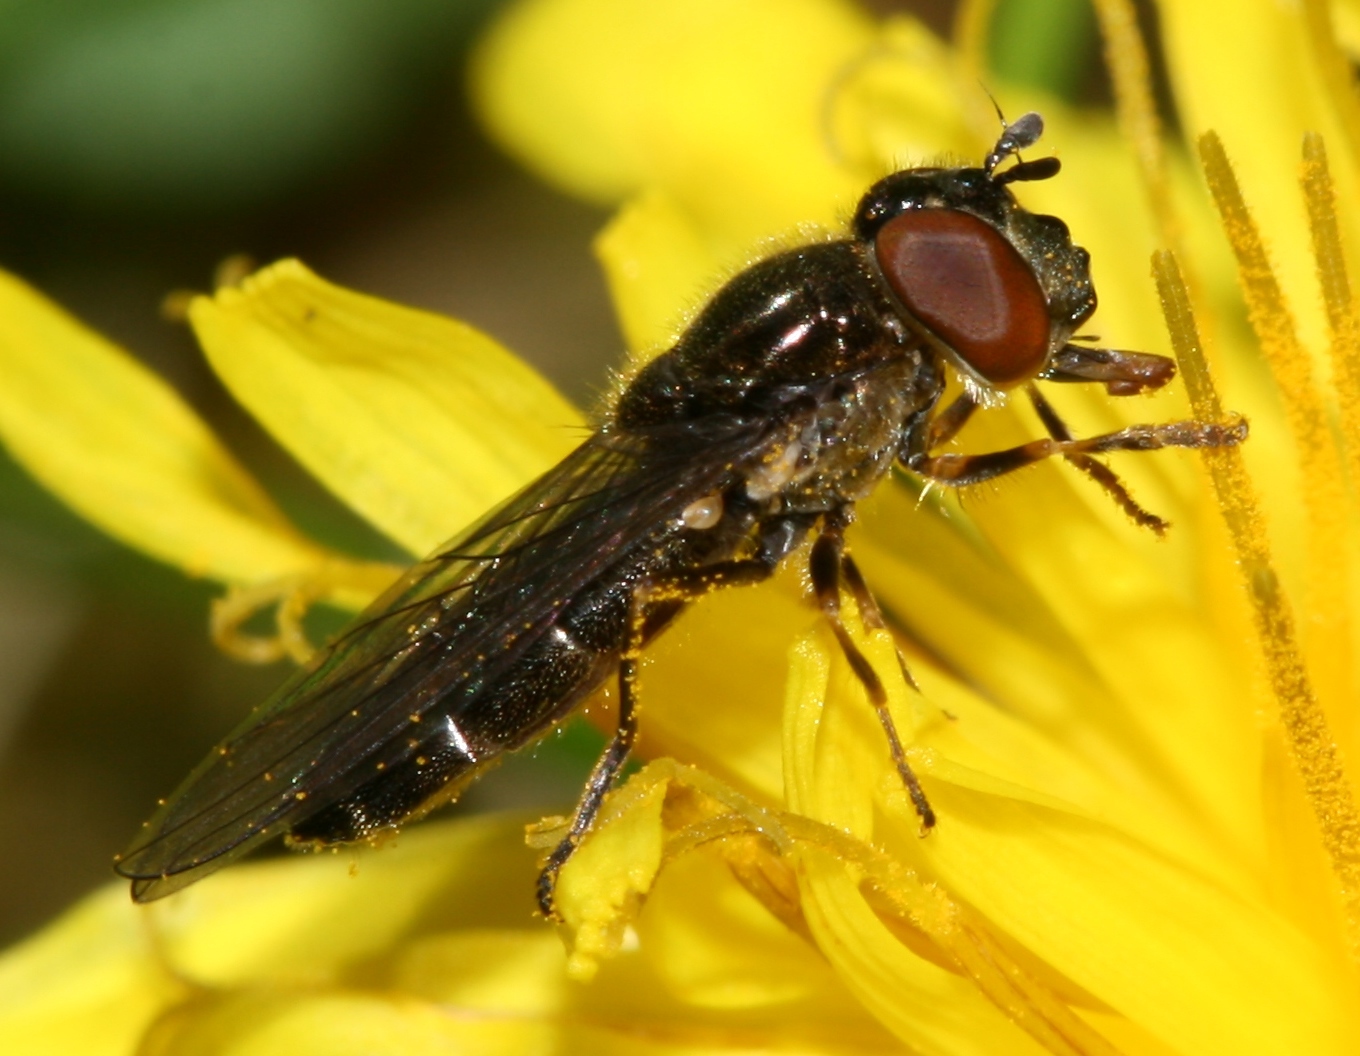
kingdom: Animalia
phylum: Arthropoda
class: Insecta
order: Diptera
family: Syrphidae
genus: Platycheirus
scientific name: Platycheirus albimanus
